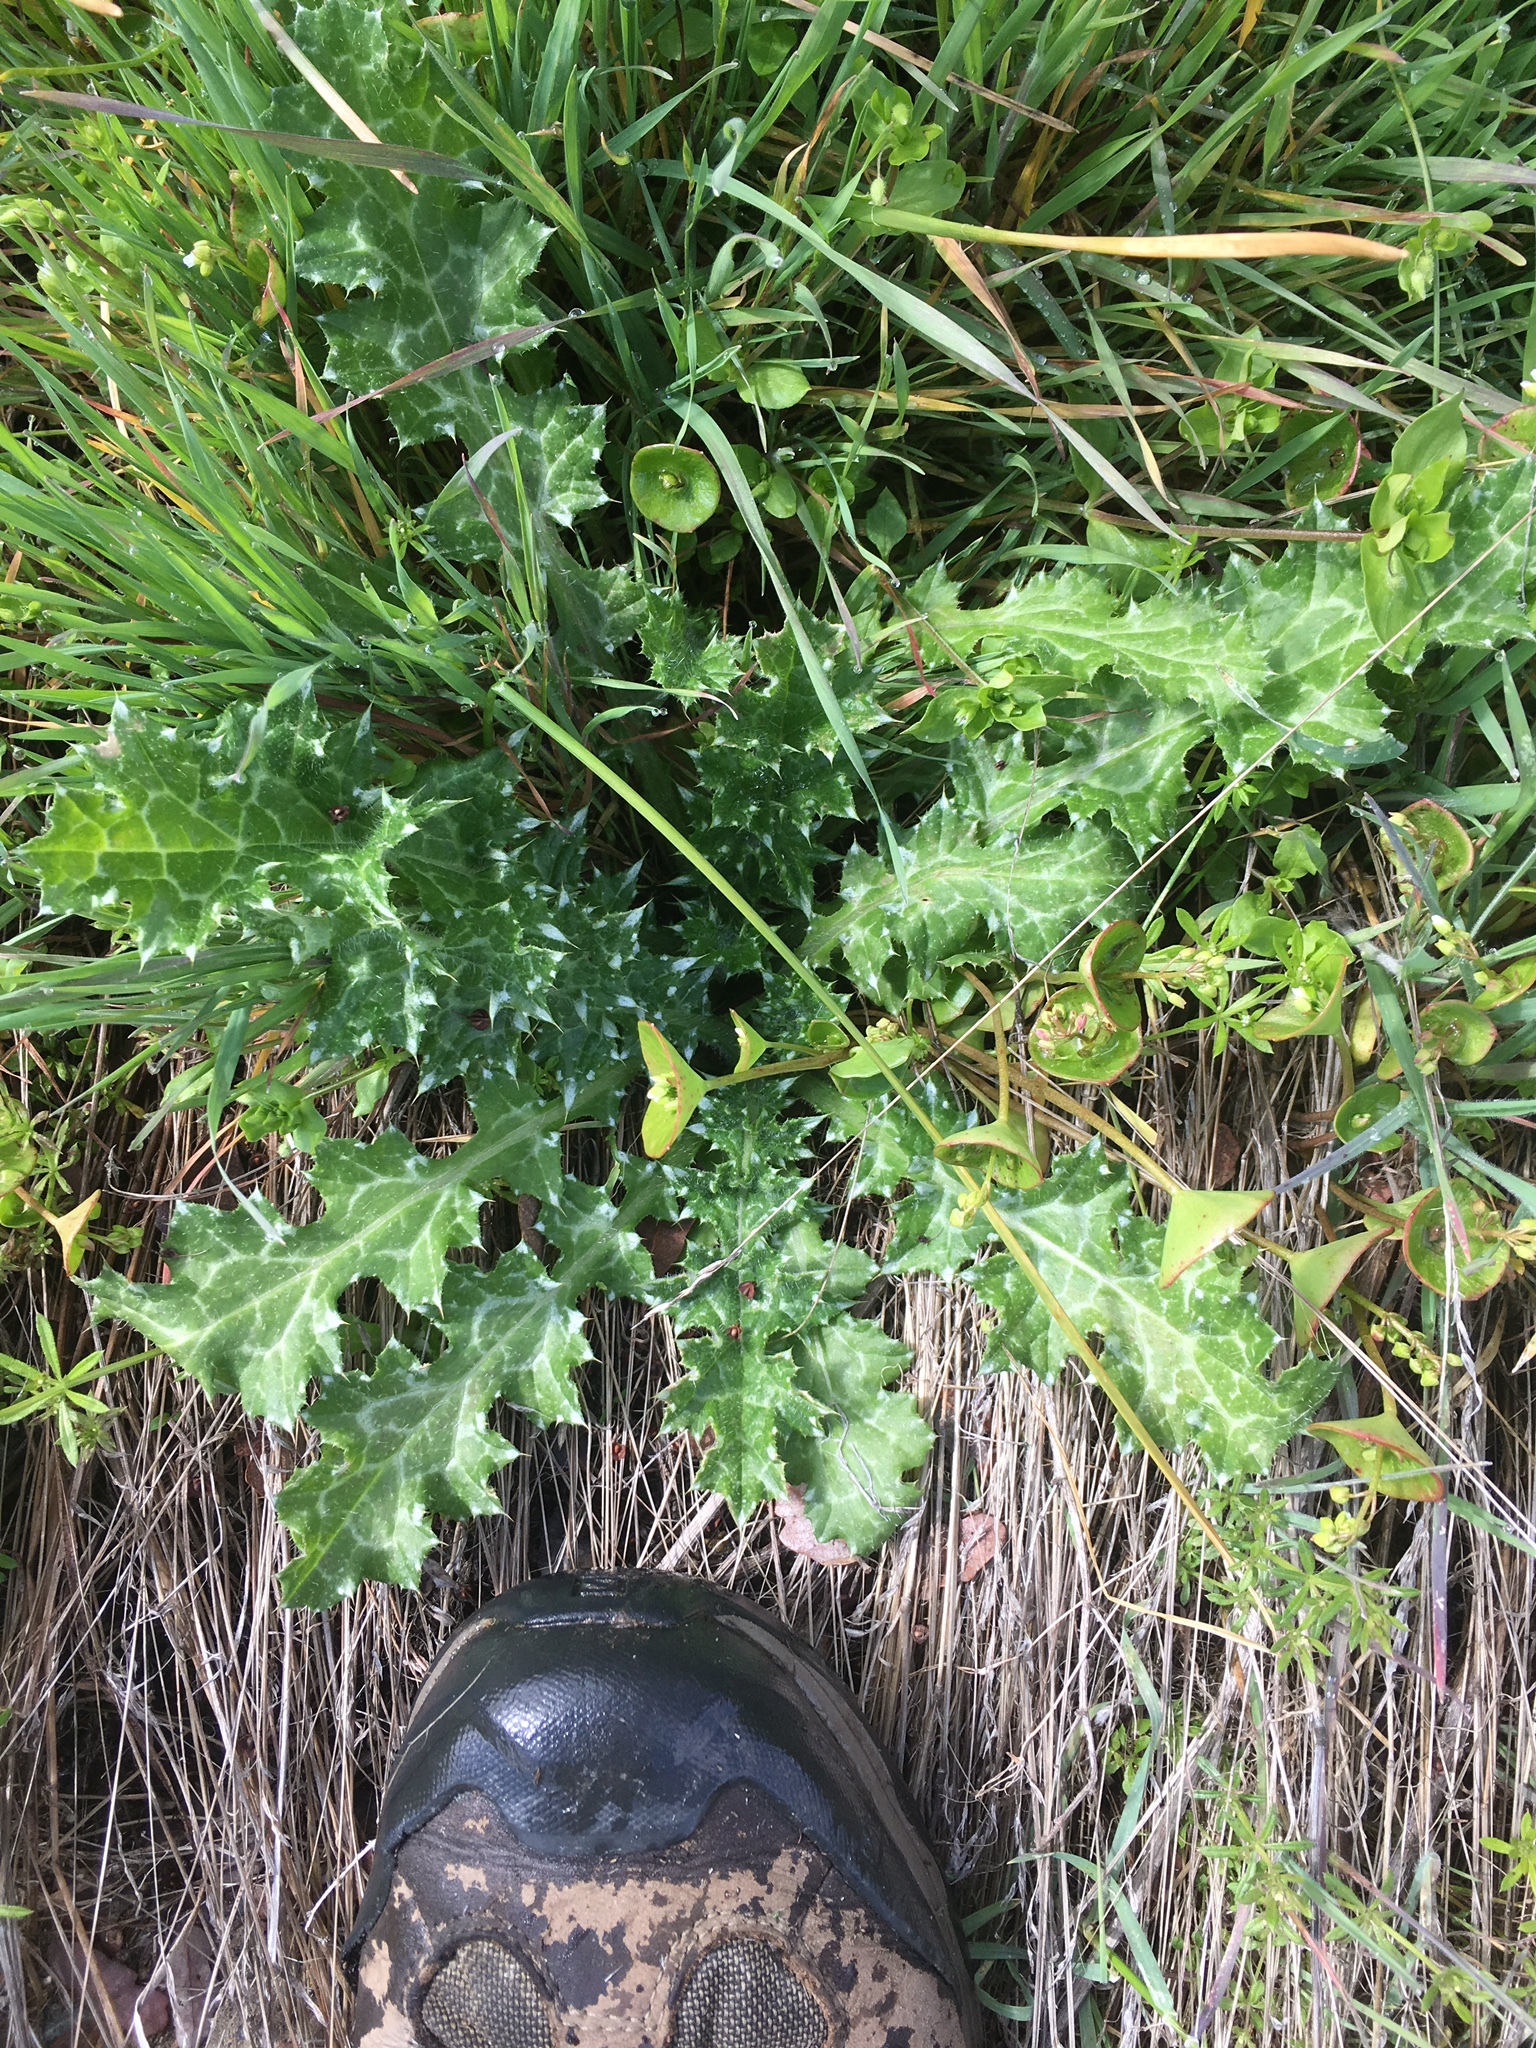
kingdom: Plantae
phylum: Tracheophyta
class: Magnoliopsida
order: Asterales
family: Asteraceae
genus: Carduus
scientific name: Carduus pycnocephalus
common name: Plymouth thistle
